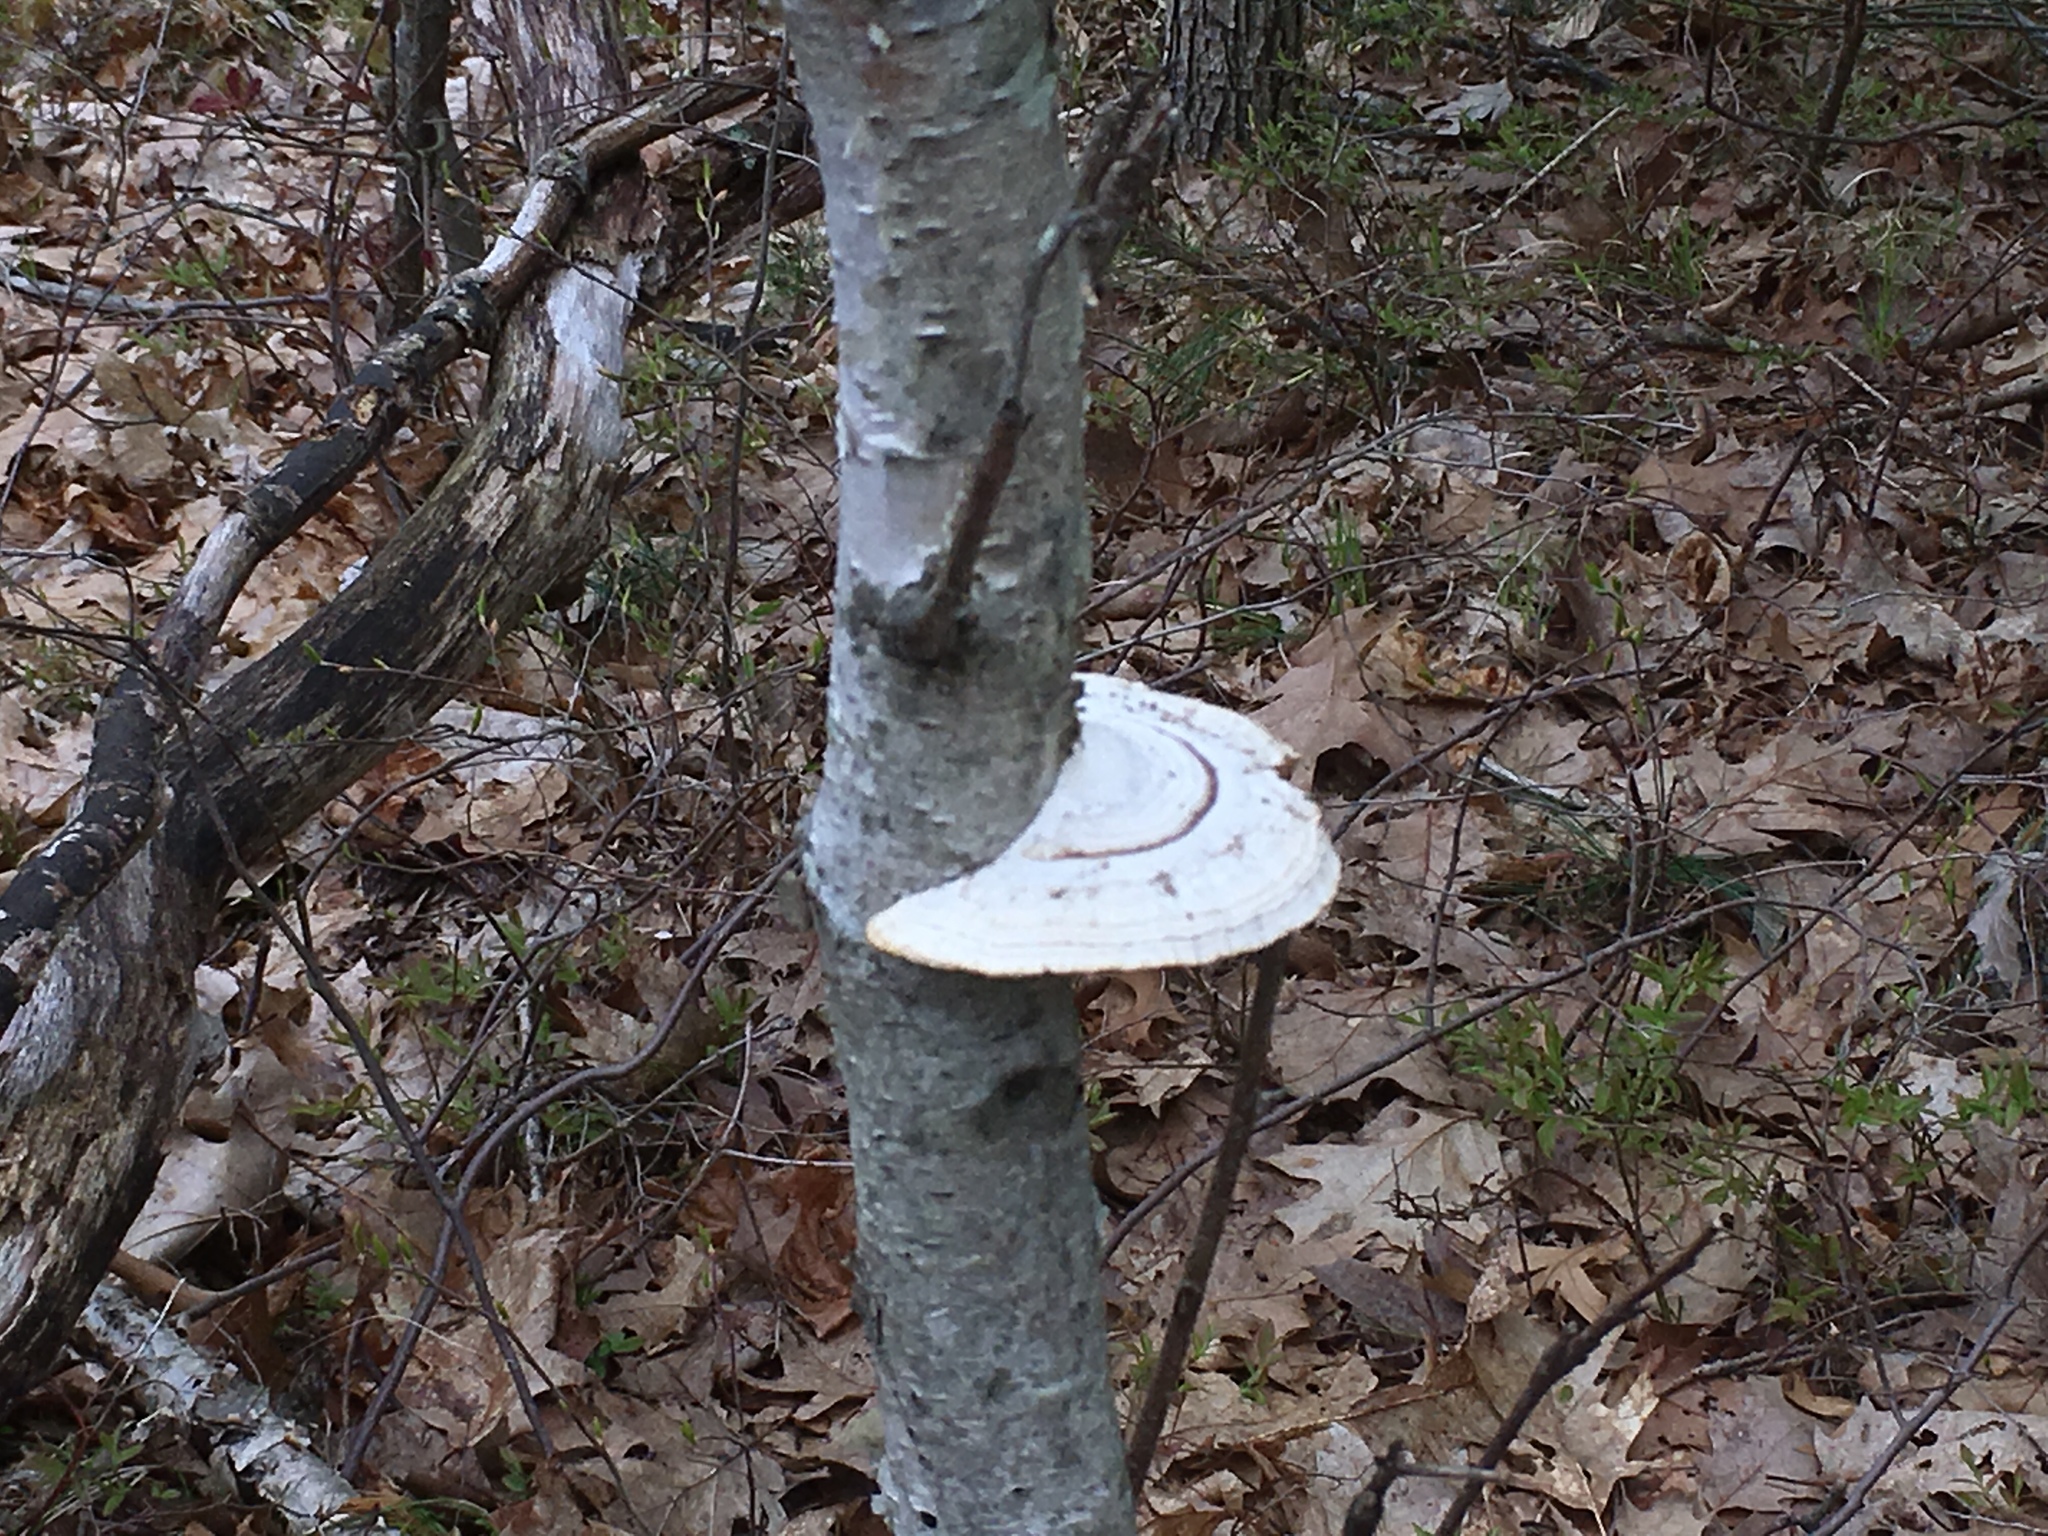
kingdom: Fungi
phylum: Basidiomycota
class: Agaricomycetes
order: Polyporales
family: Fomitopsidaceae
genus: Fomitopsis
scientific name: Fomitopsis betulina
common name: Birch polypore
